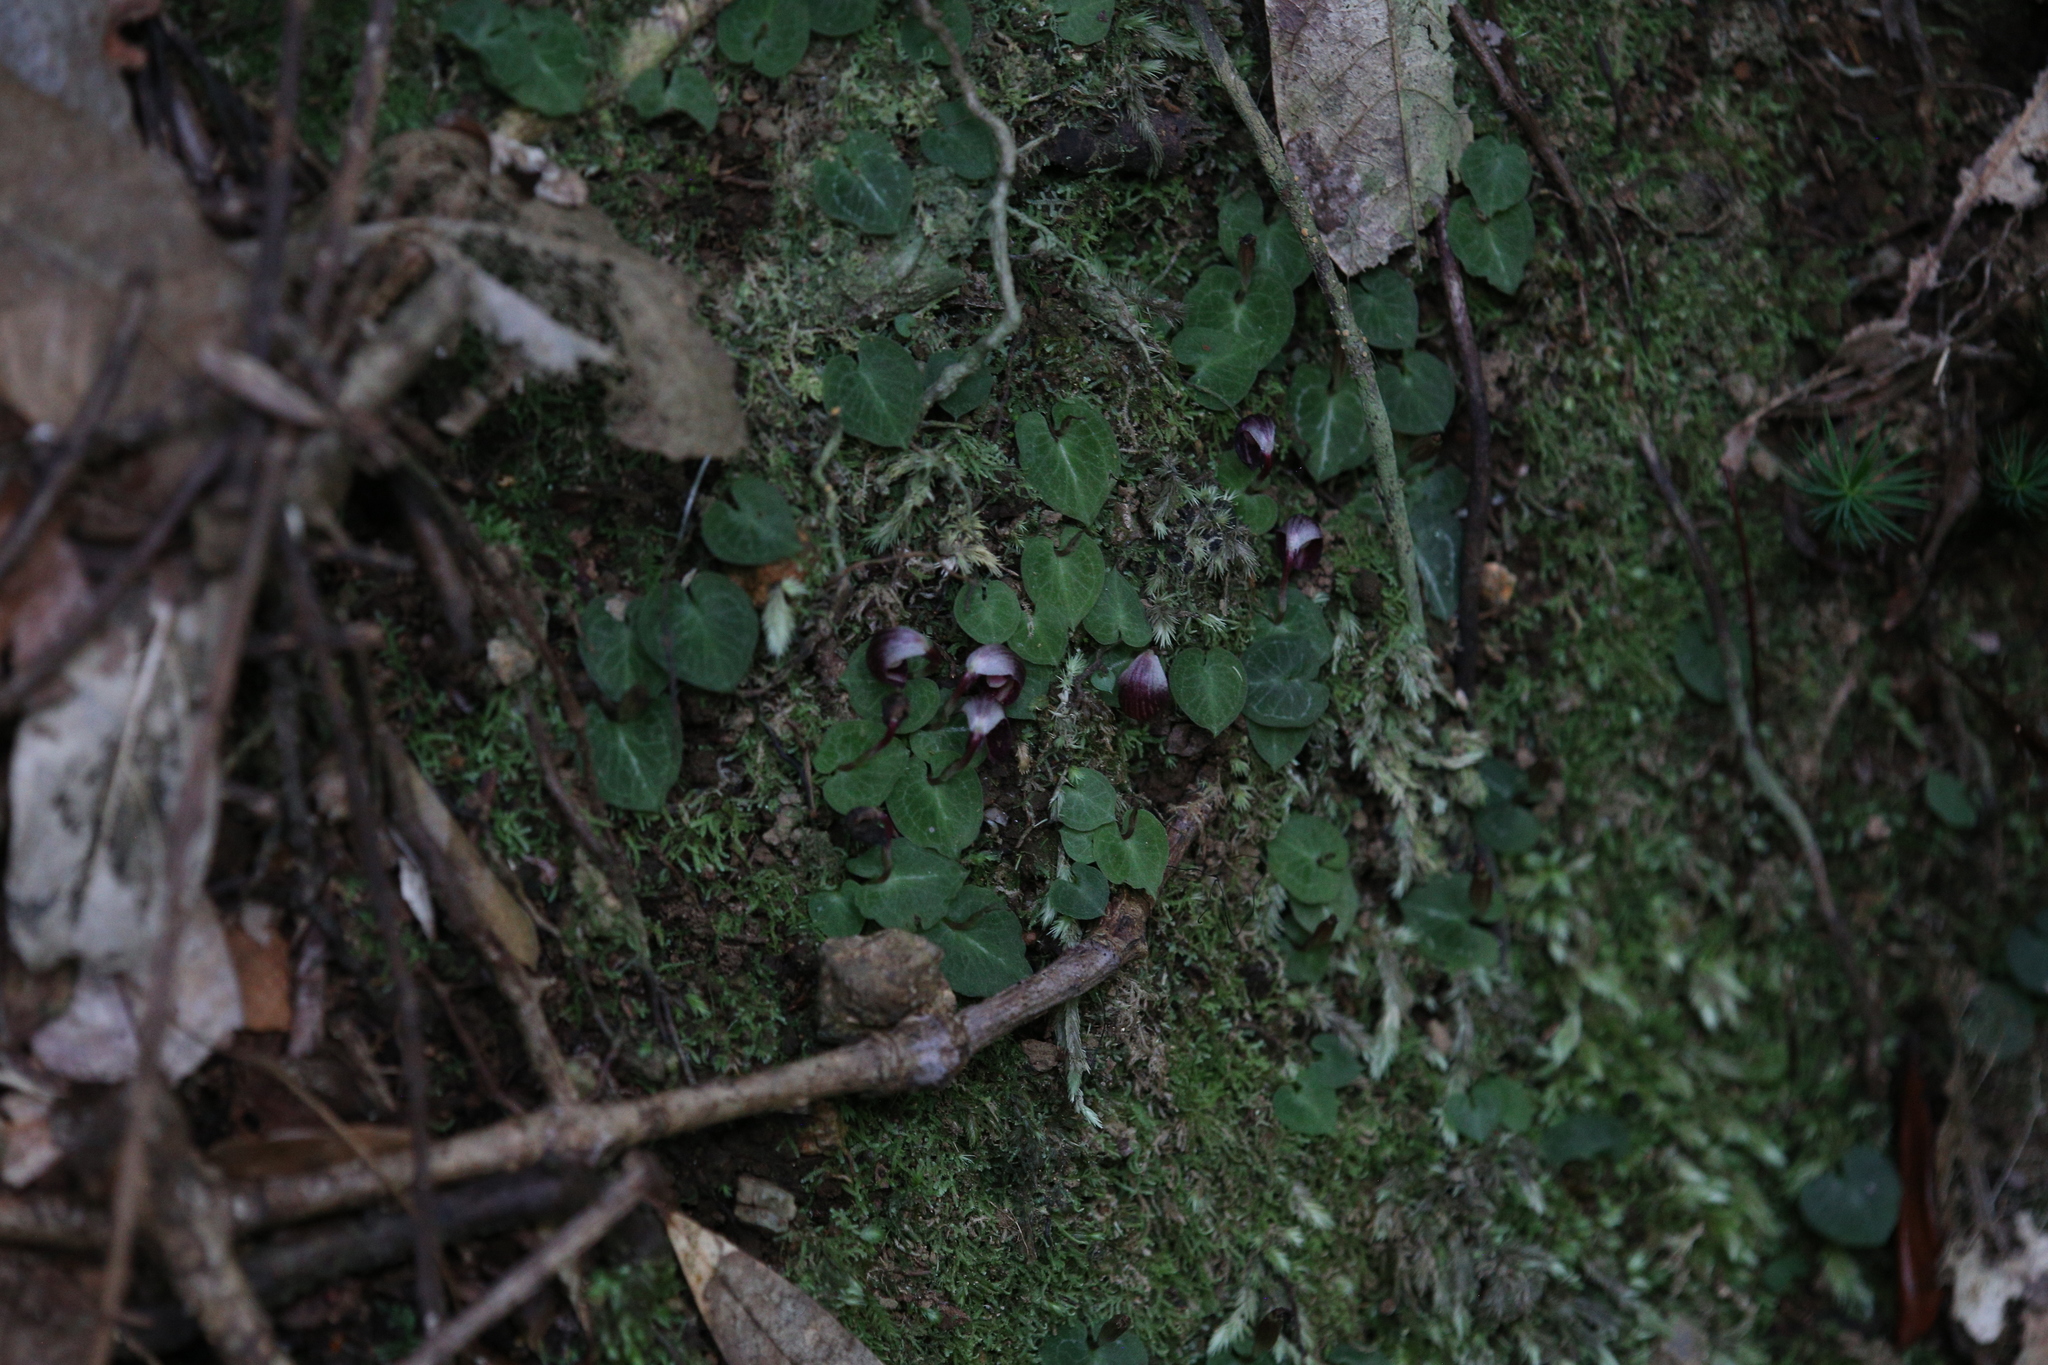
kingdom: Plantae
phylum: Tracheophyta
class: Liliopsida
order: Asparagales
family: Orchidaceae
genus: Corybas
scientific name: Corybas abellianus
